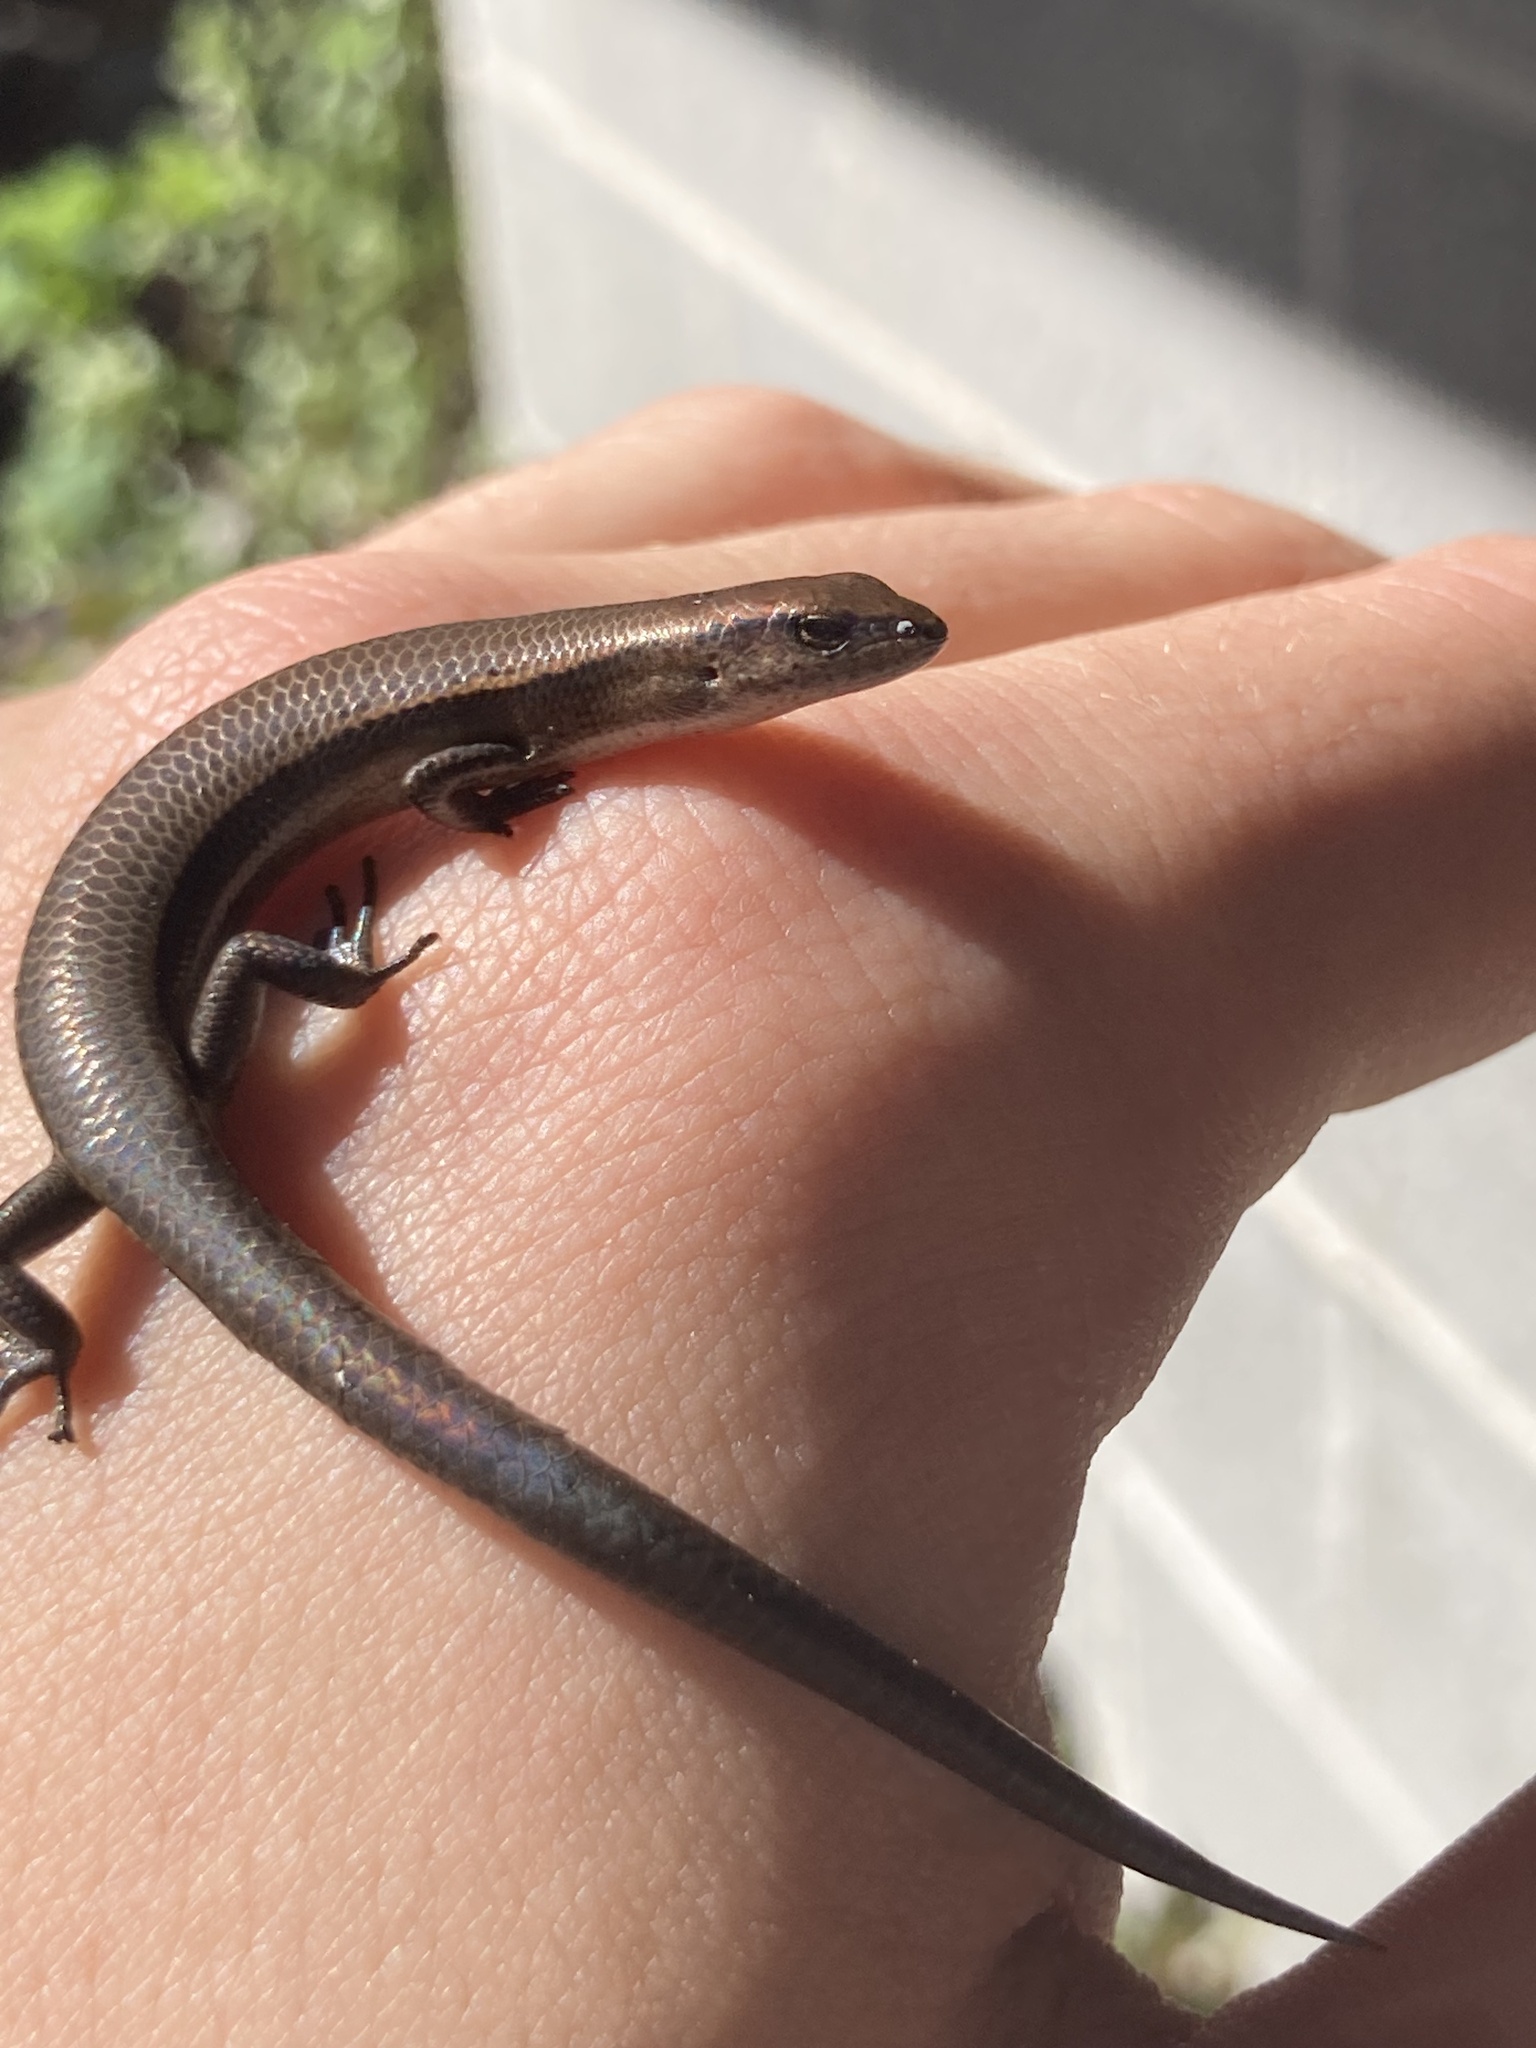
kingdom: Animalia
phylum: Chordata
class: Squamata
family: Scincidae
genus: Lampropholis
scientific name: Lampropholis delicata
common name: Plague skink
